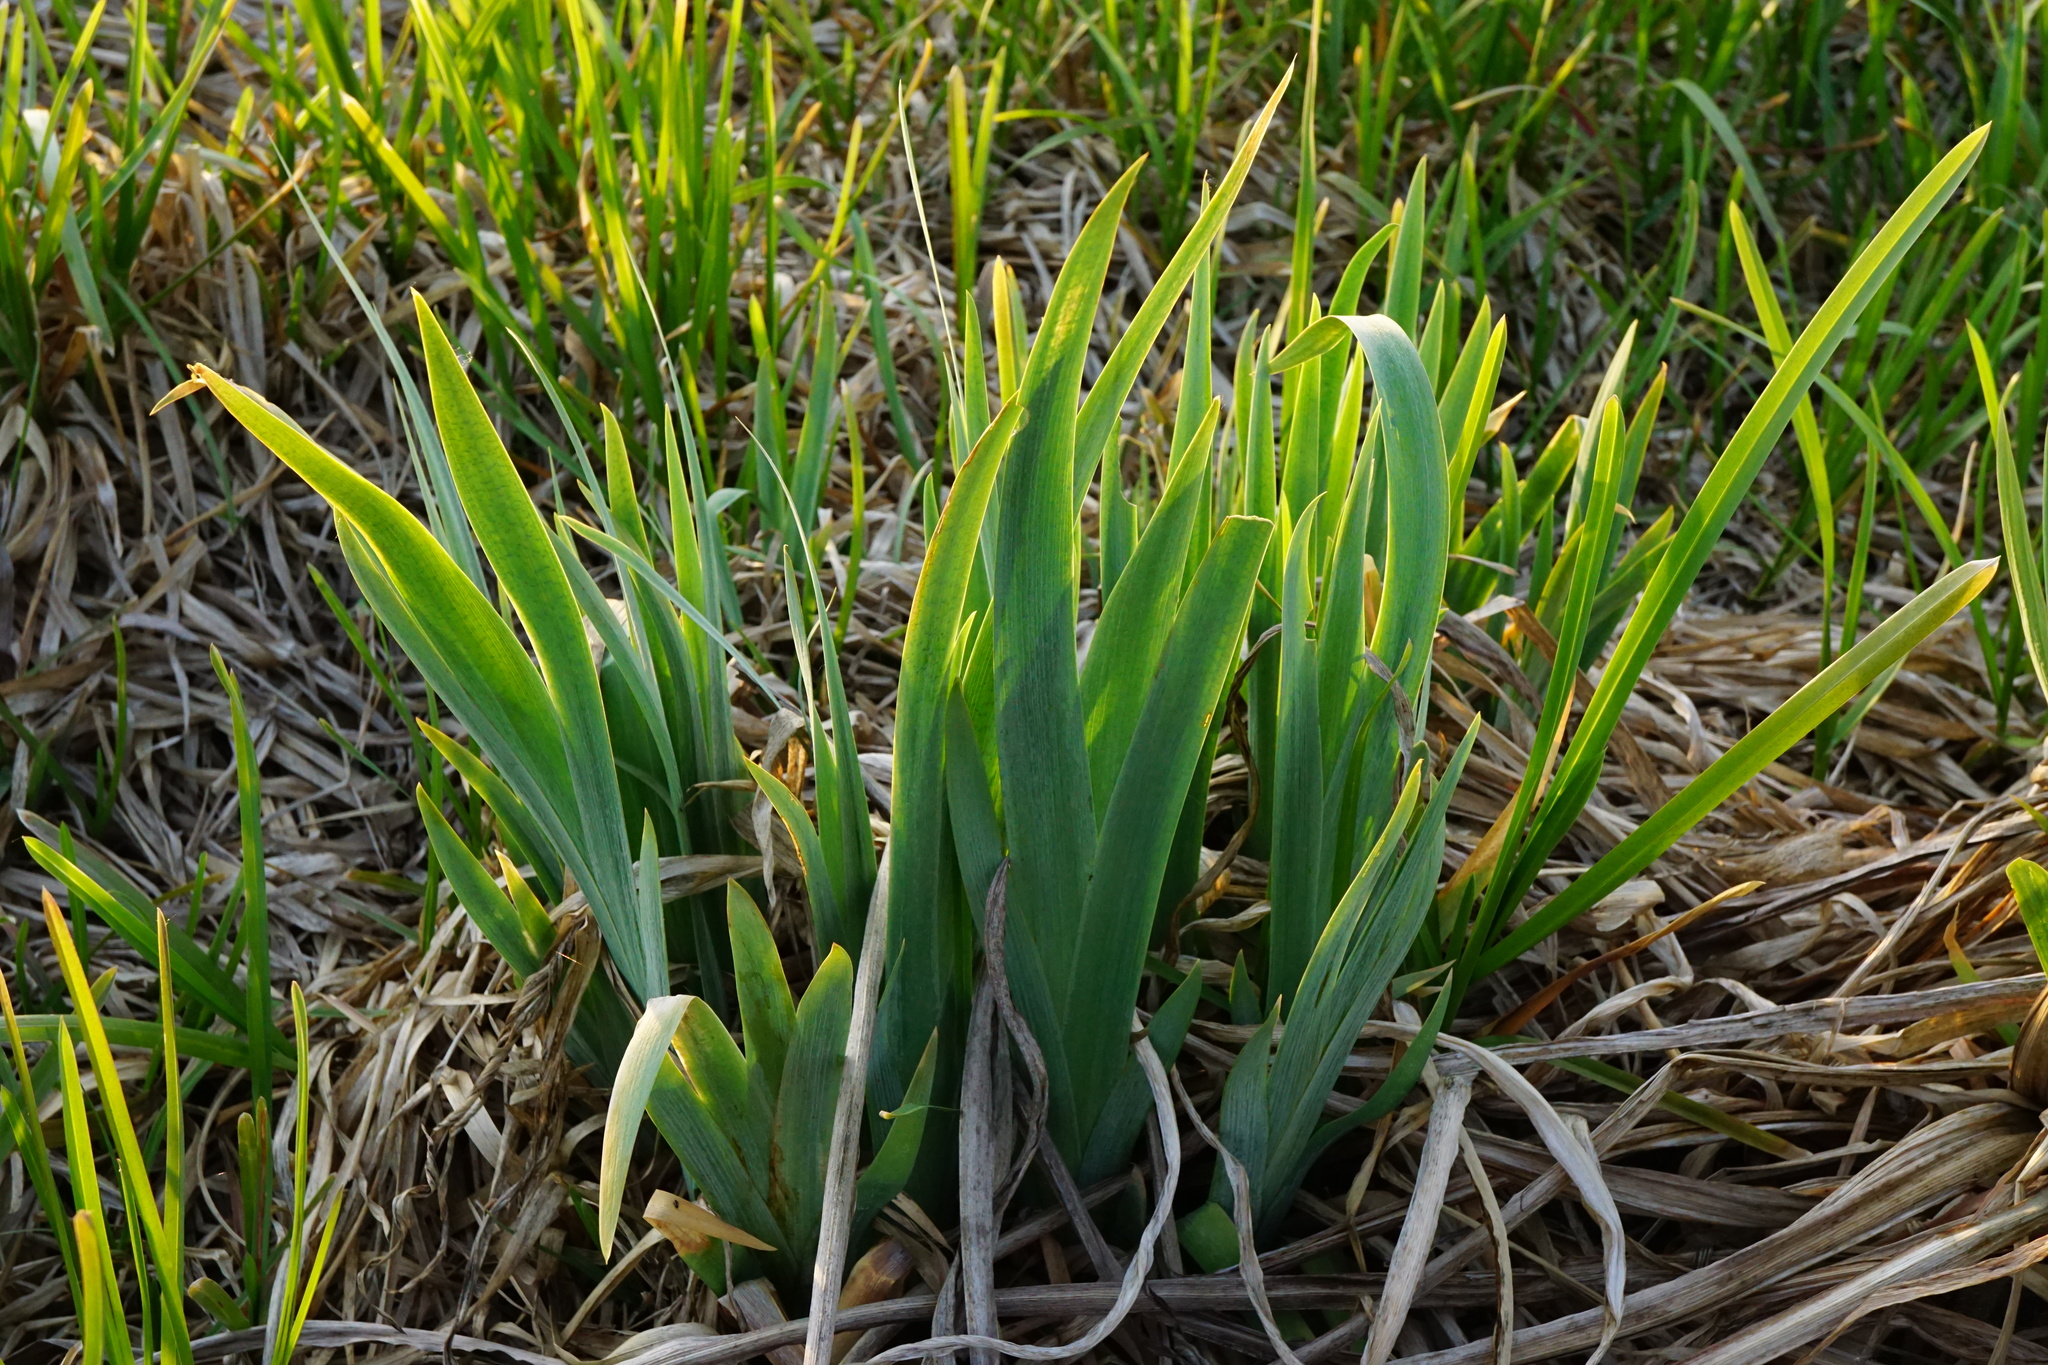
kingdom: Plantae
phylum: Tracheophyta
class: Liliopsida
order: Asparagales
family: Iridaceae
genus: Iris
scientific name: Iris pseudacorus
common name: Yellow flag
